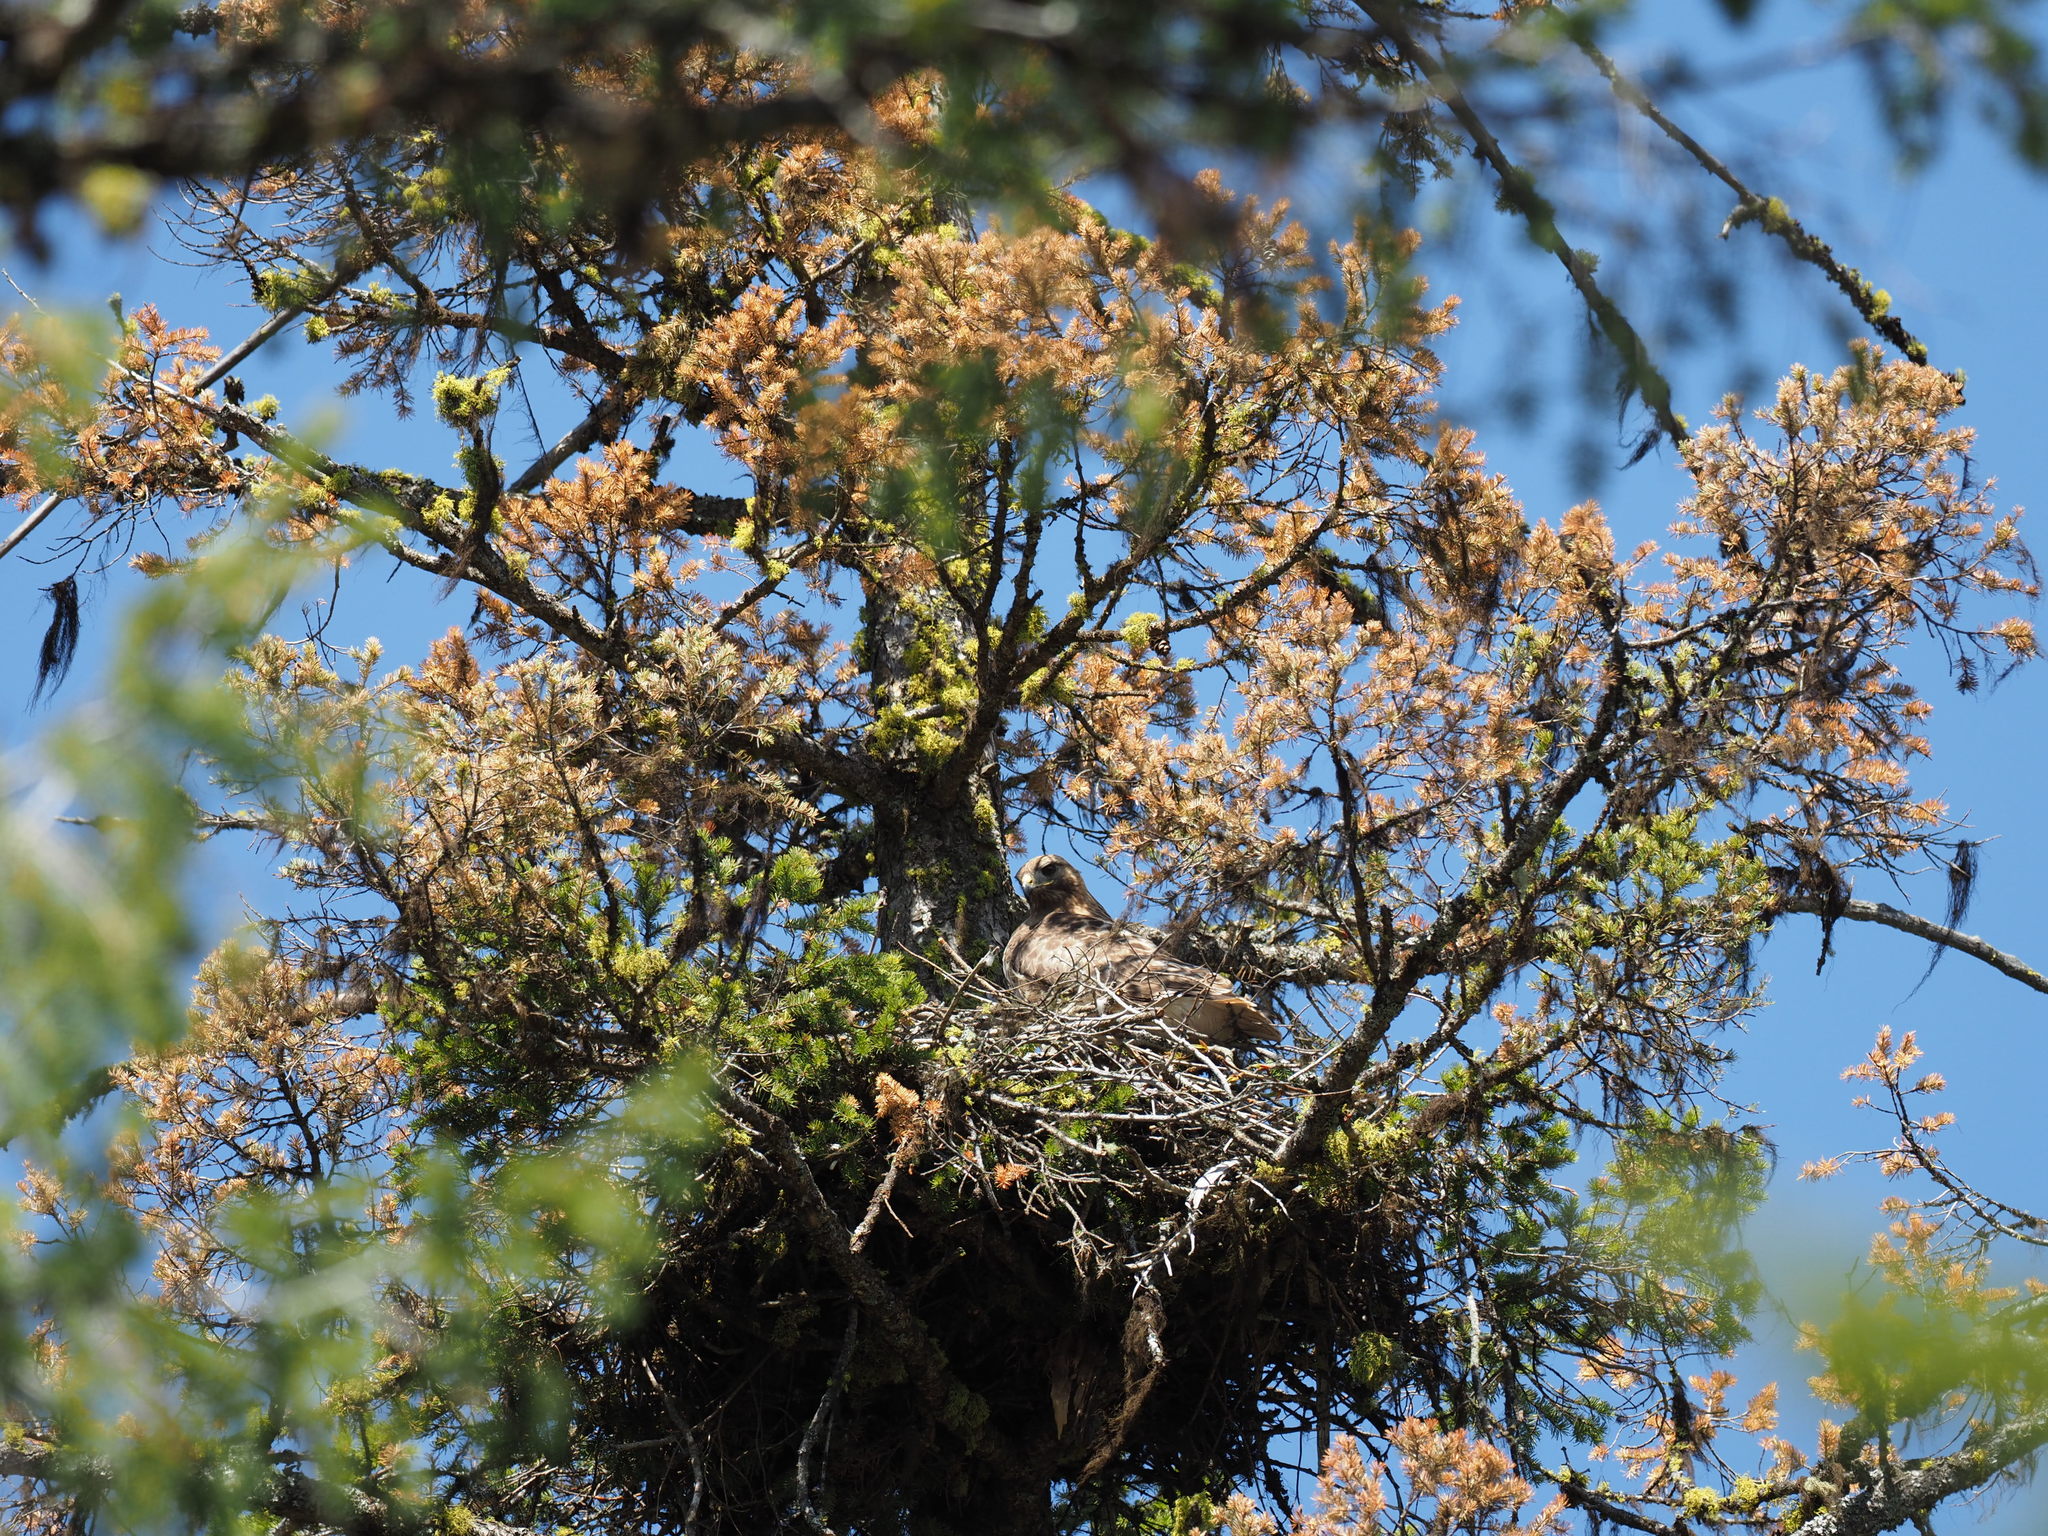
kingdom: Animalia
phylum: Chordata
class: Aves
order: Accipitriformes
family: Accipitridae
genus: Buteo
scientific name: Buteo jamaicensis
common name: Red-tailed hawk
